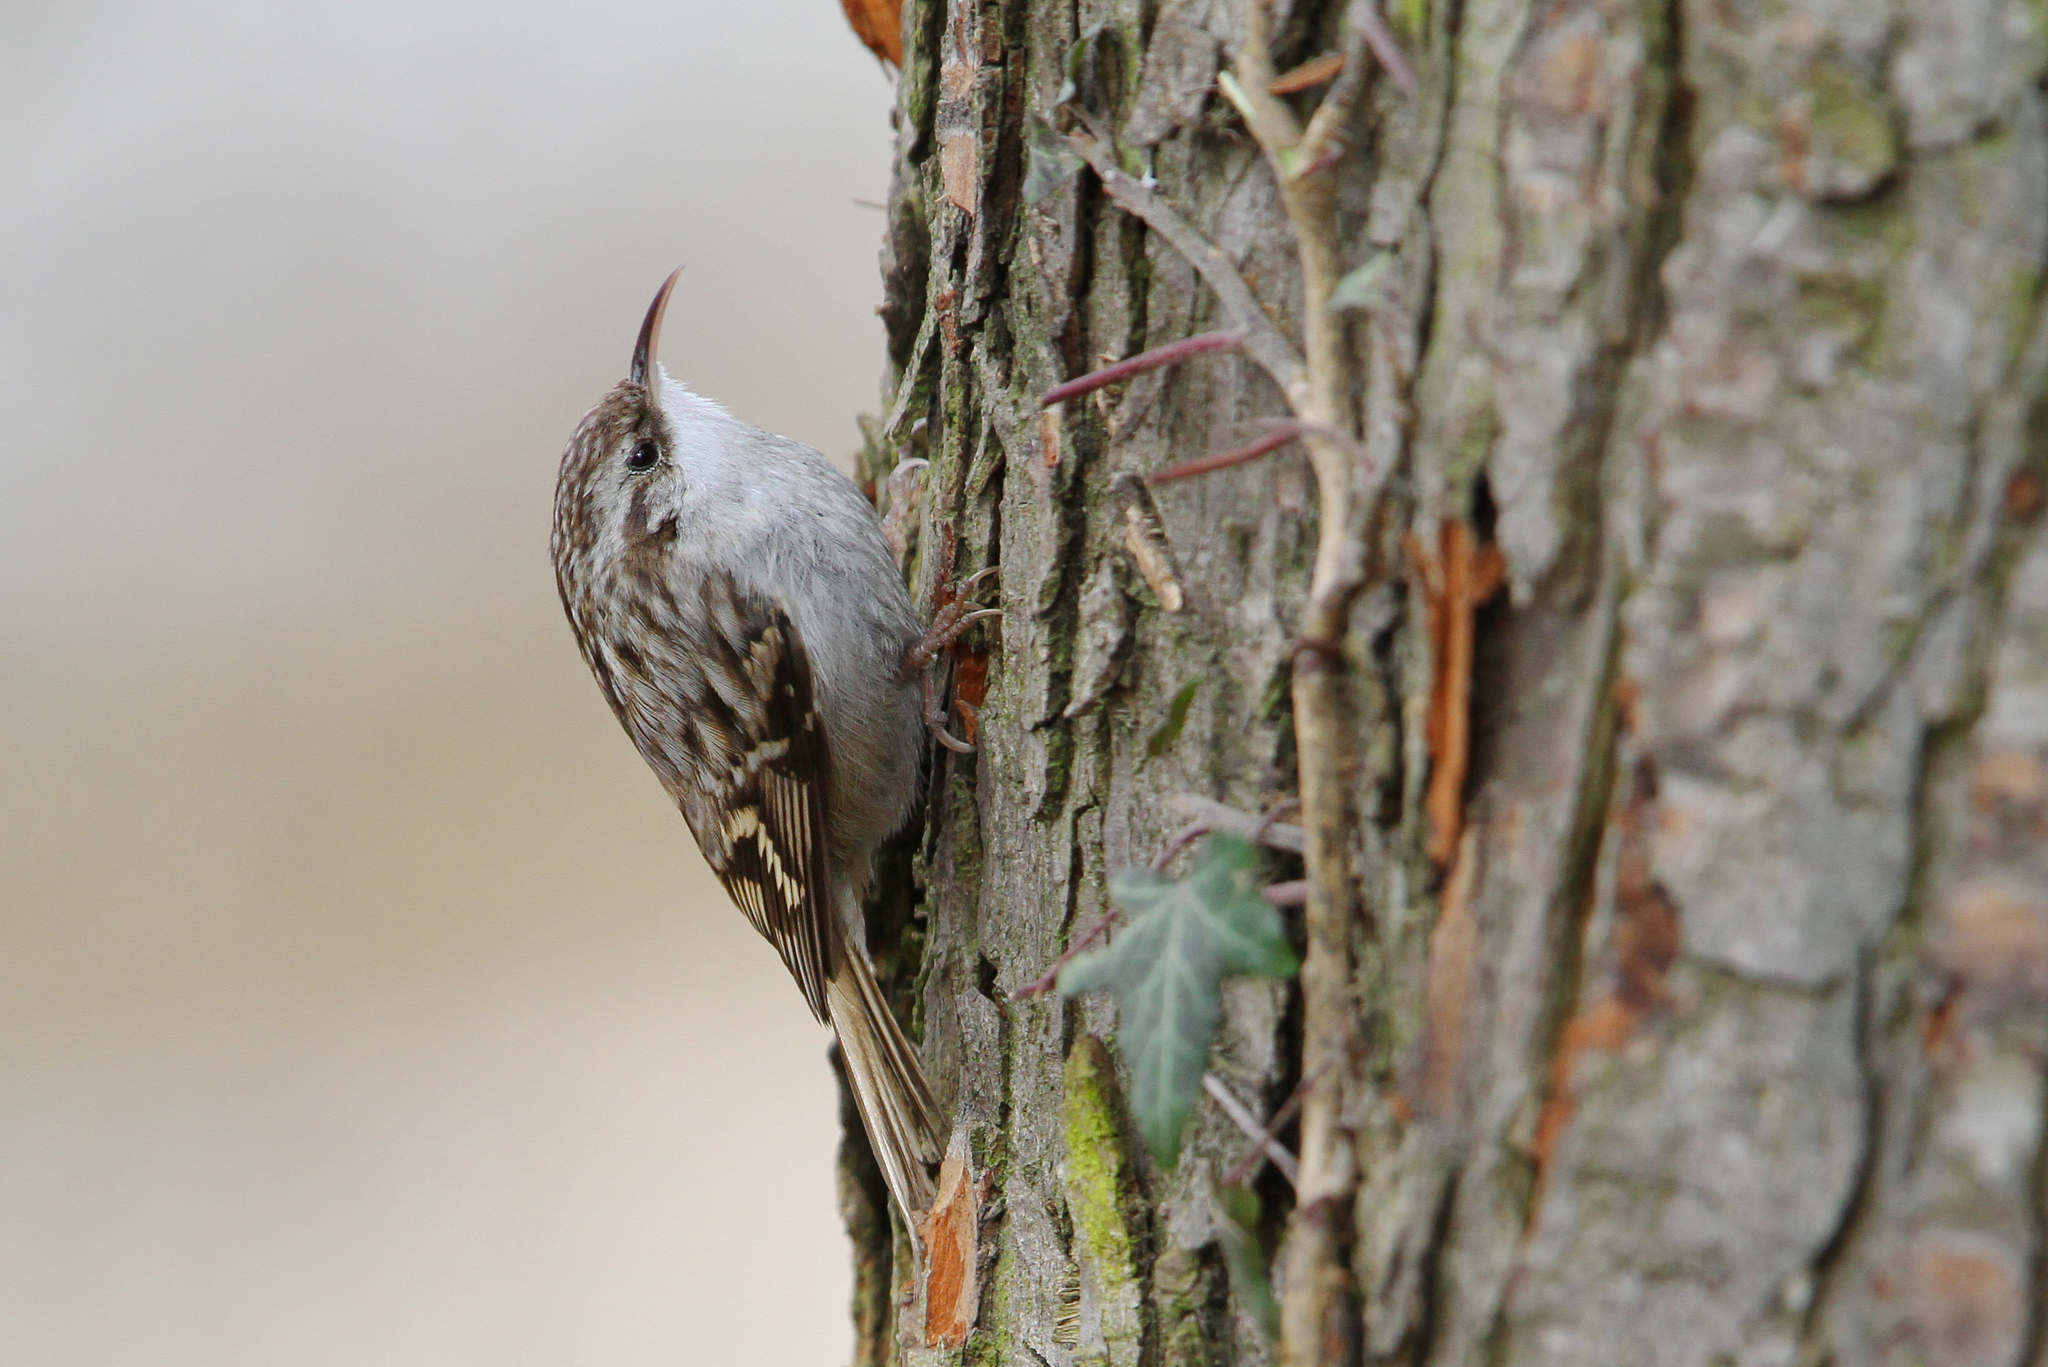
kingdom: Animalia
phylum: Chordata
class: Aves
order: Passeriformes
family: Certhiidae
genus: Certhia
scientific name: Certhia brachydactyla
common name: Short-toed treecreeper
